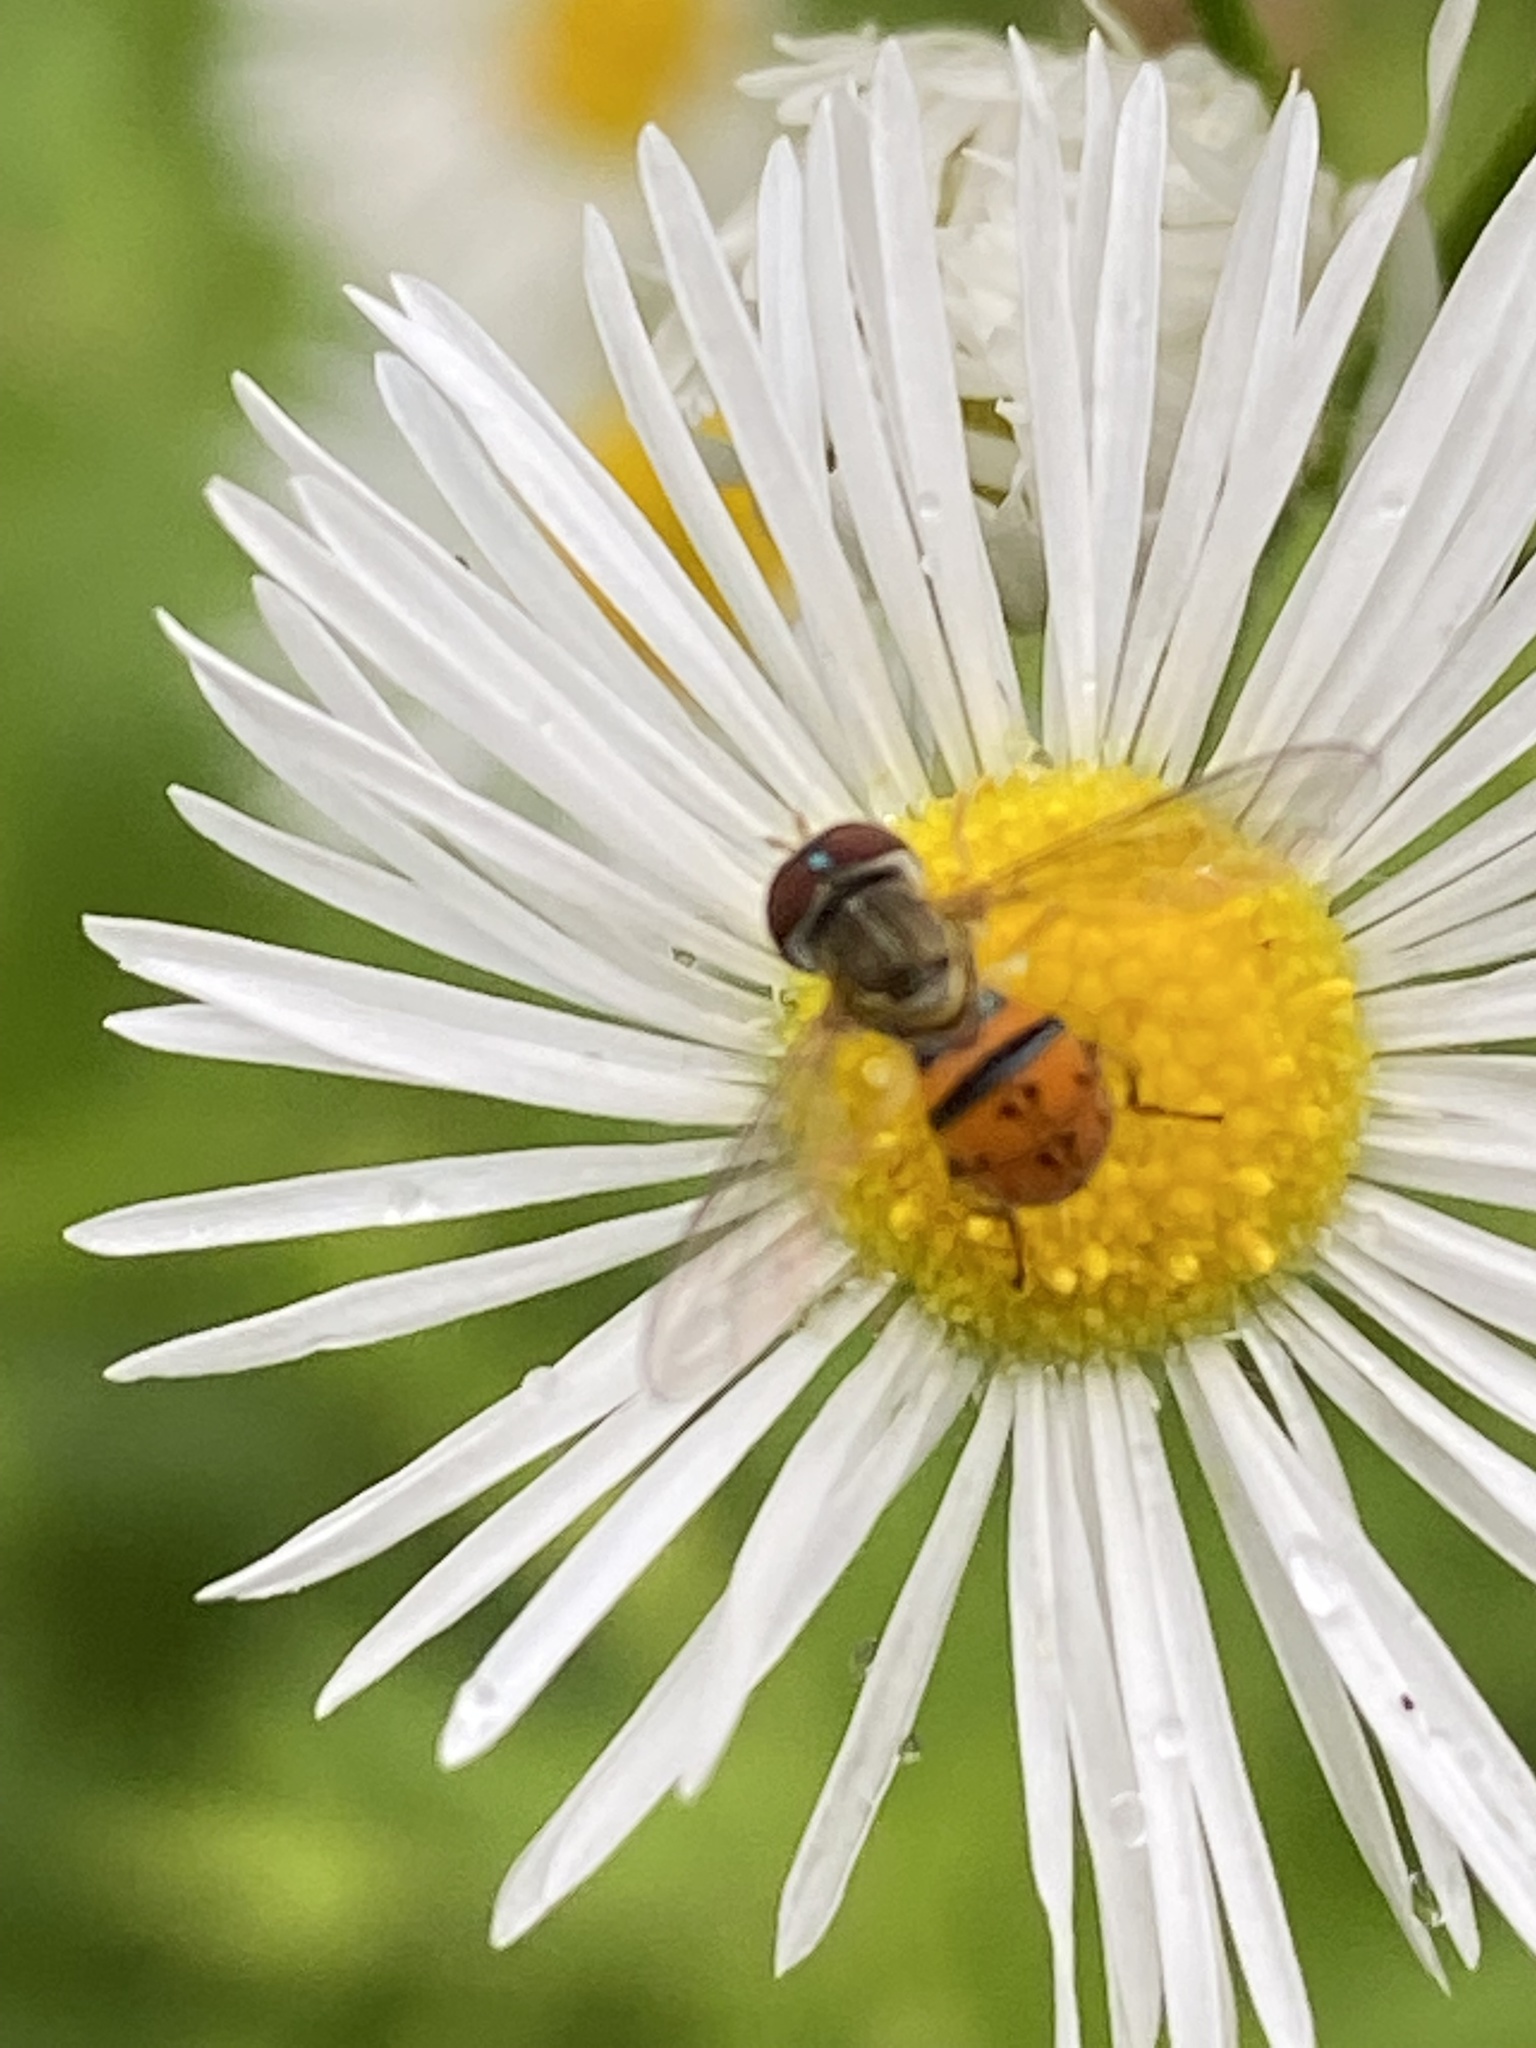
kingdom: Animalia
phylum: Arthropoda
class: Insecta
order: Diptera
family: Syrphidae
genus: Toxomerus
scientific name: Toxomerus boscii
